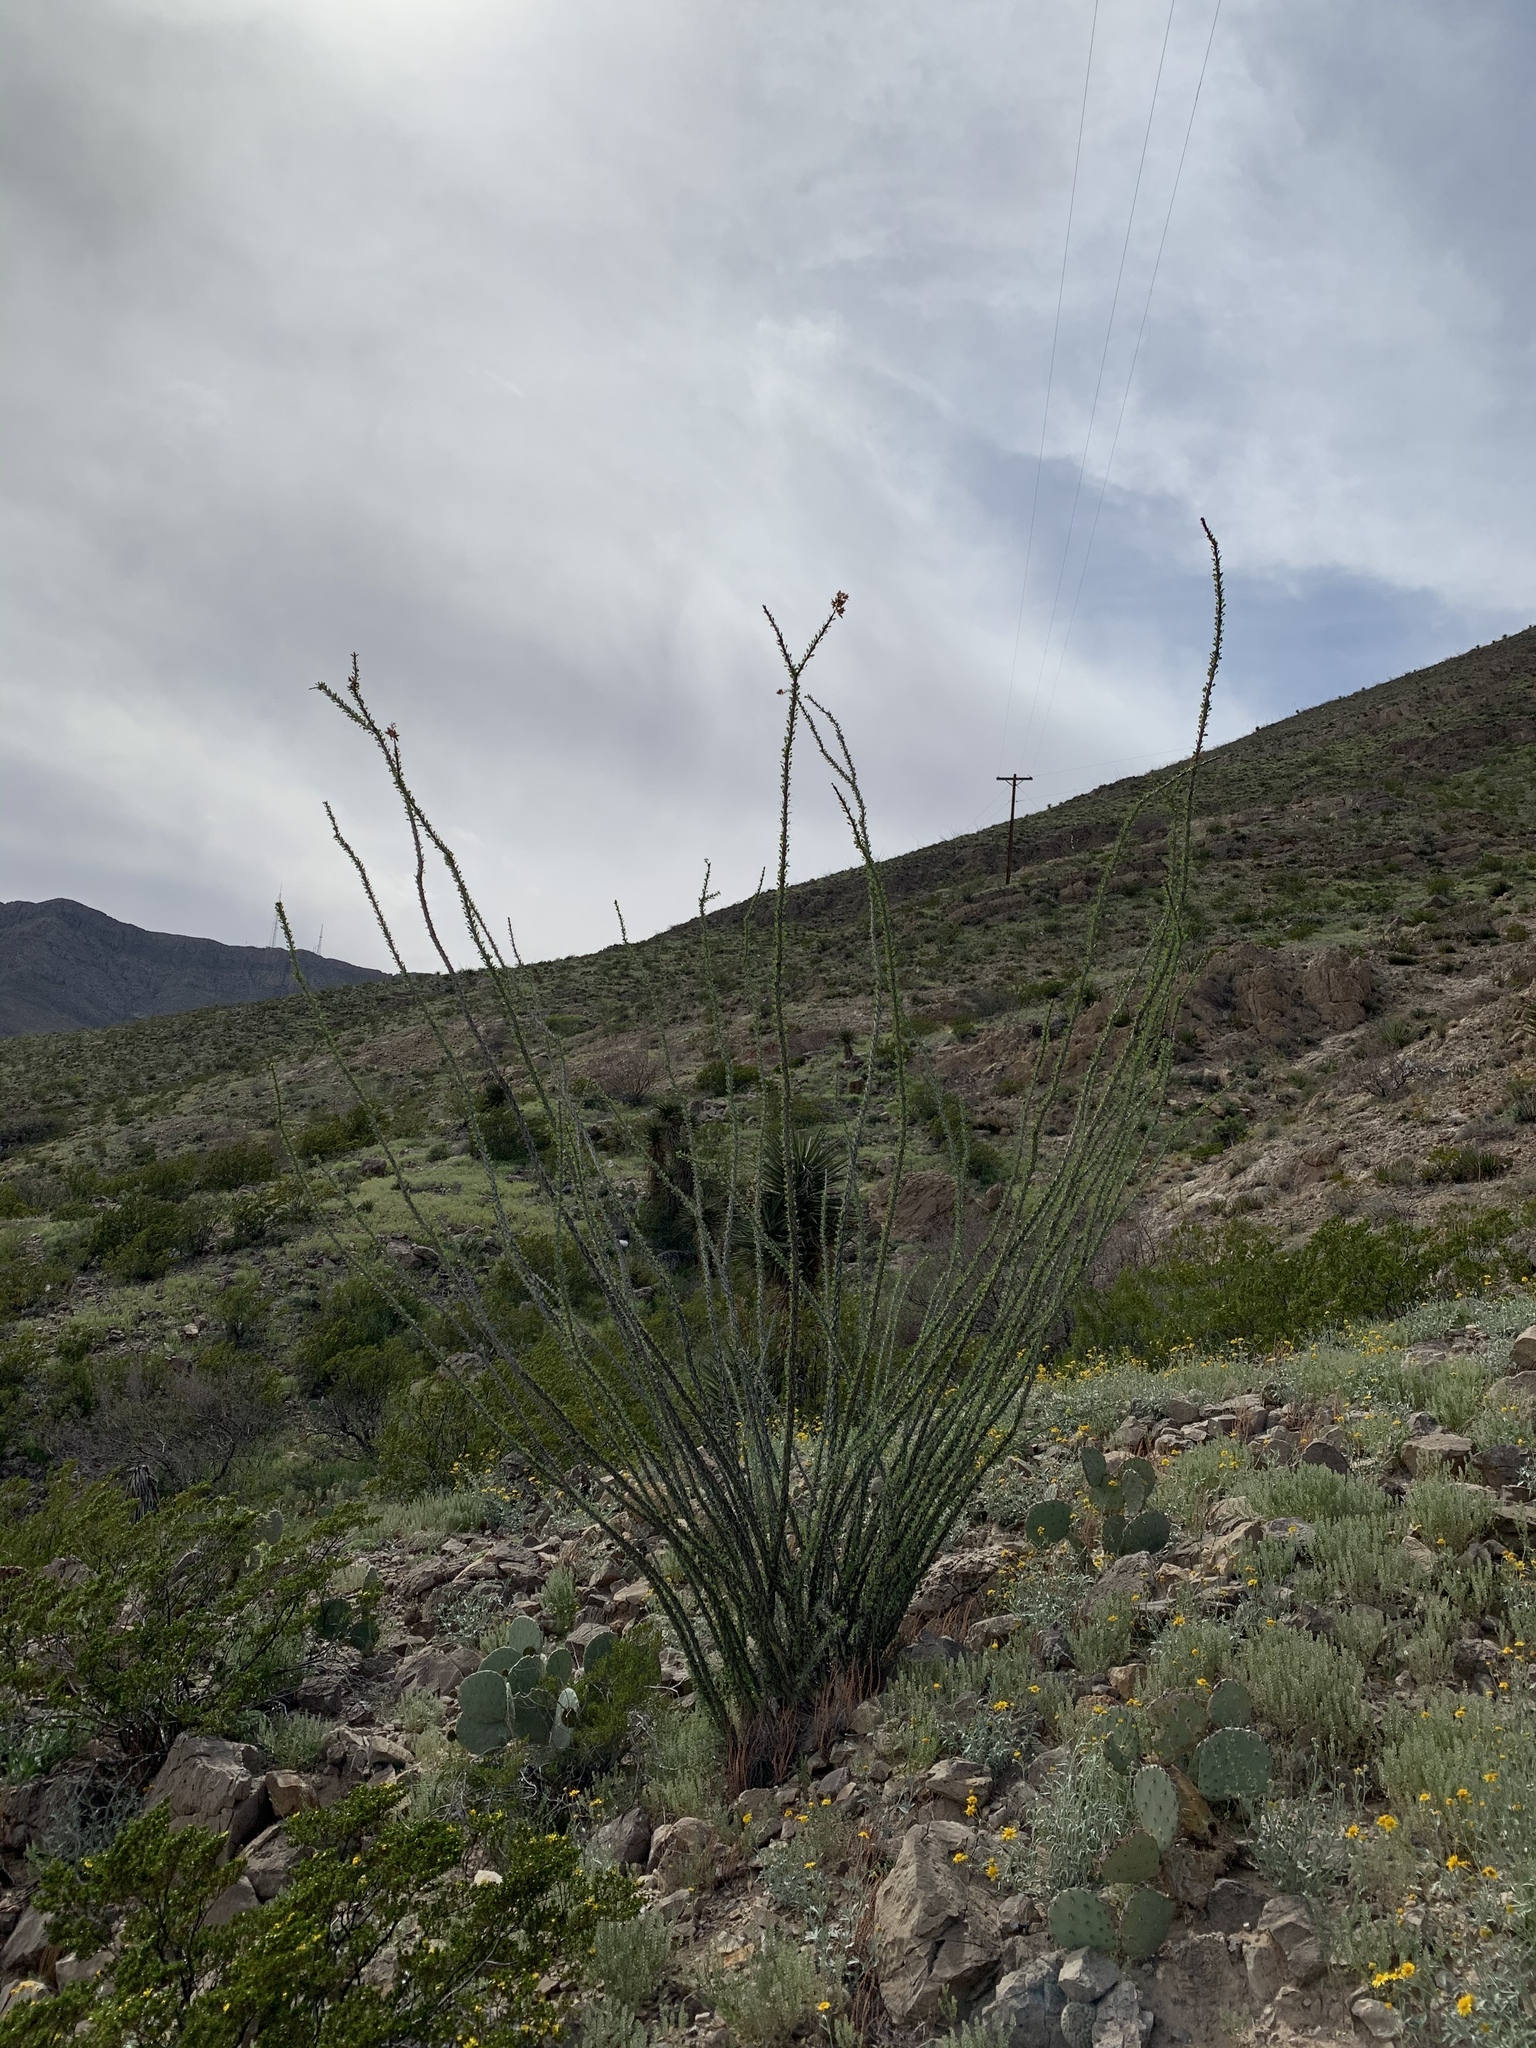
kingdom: Plantae
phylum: Tracheophyta
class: Magnoliopsida
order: Ericales
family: Fouquieriaceae
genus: Fouquieria
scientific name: Fouquieria splendens
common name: Vine-cactus
